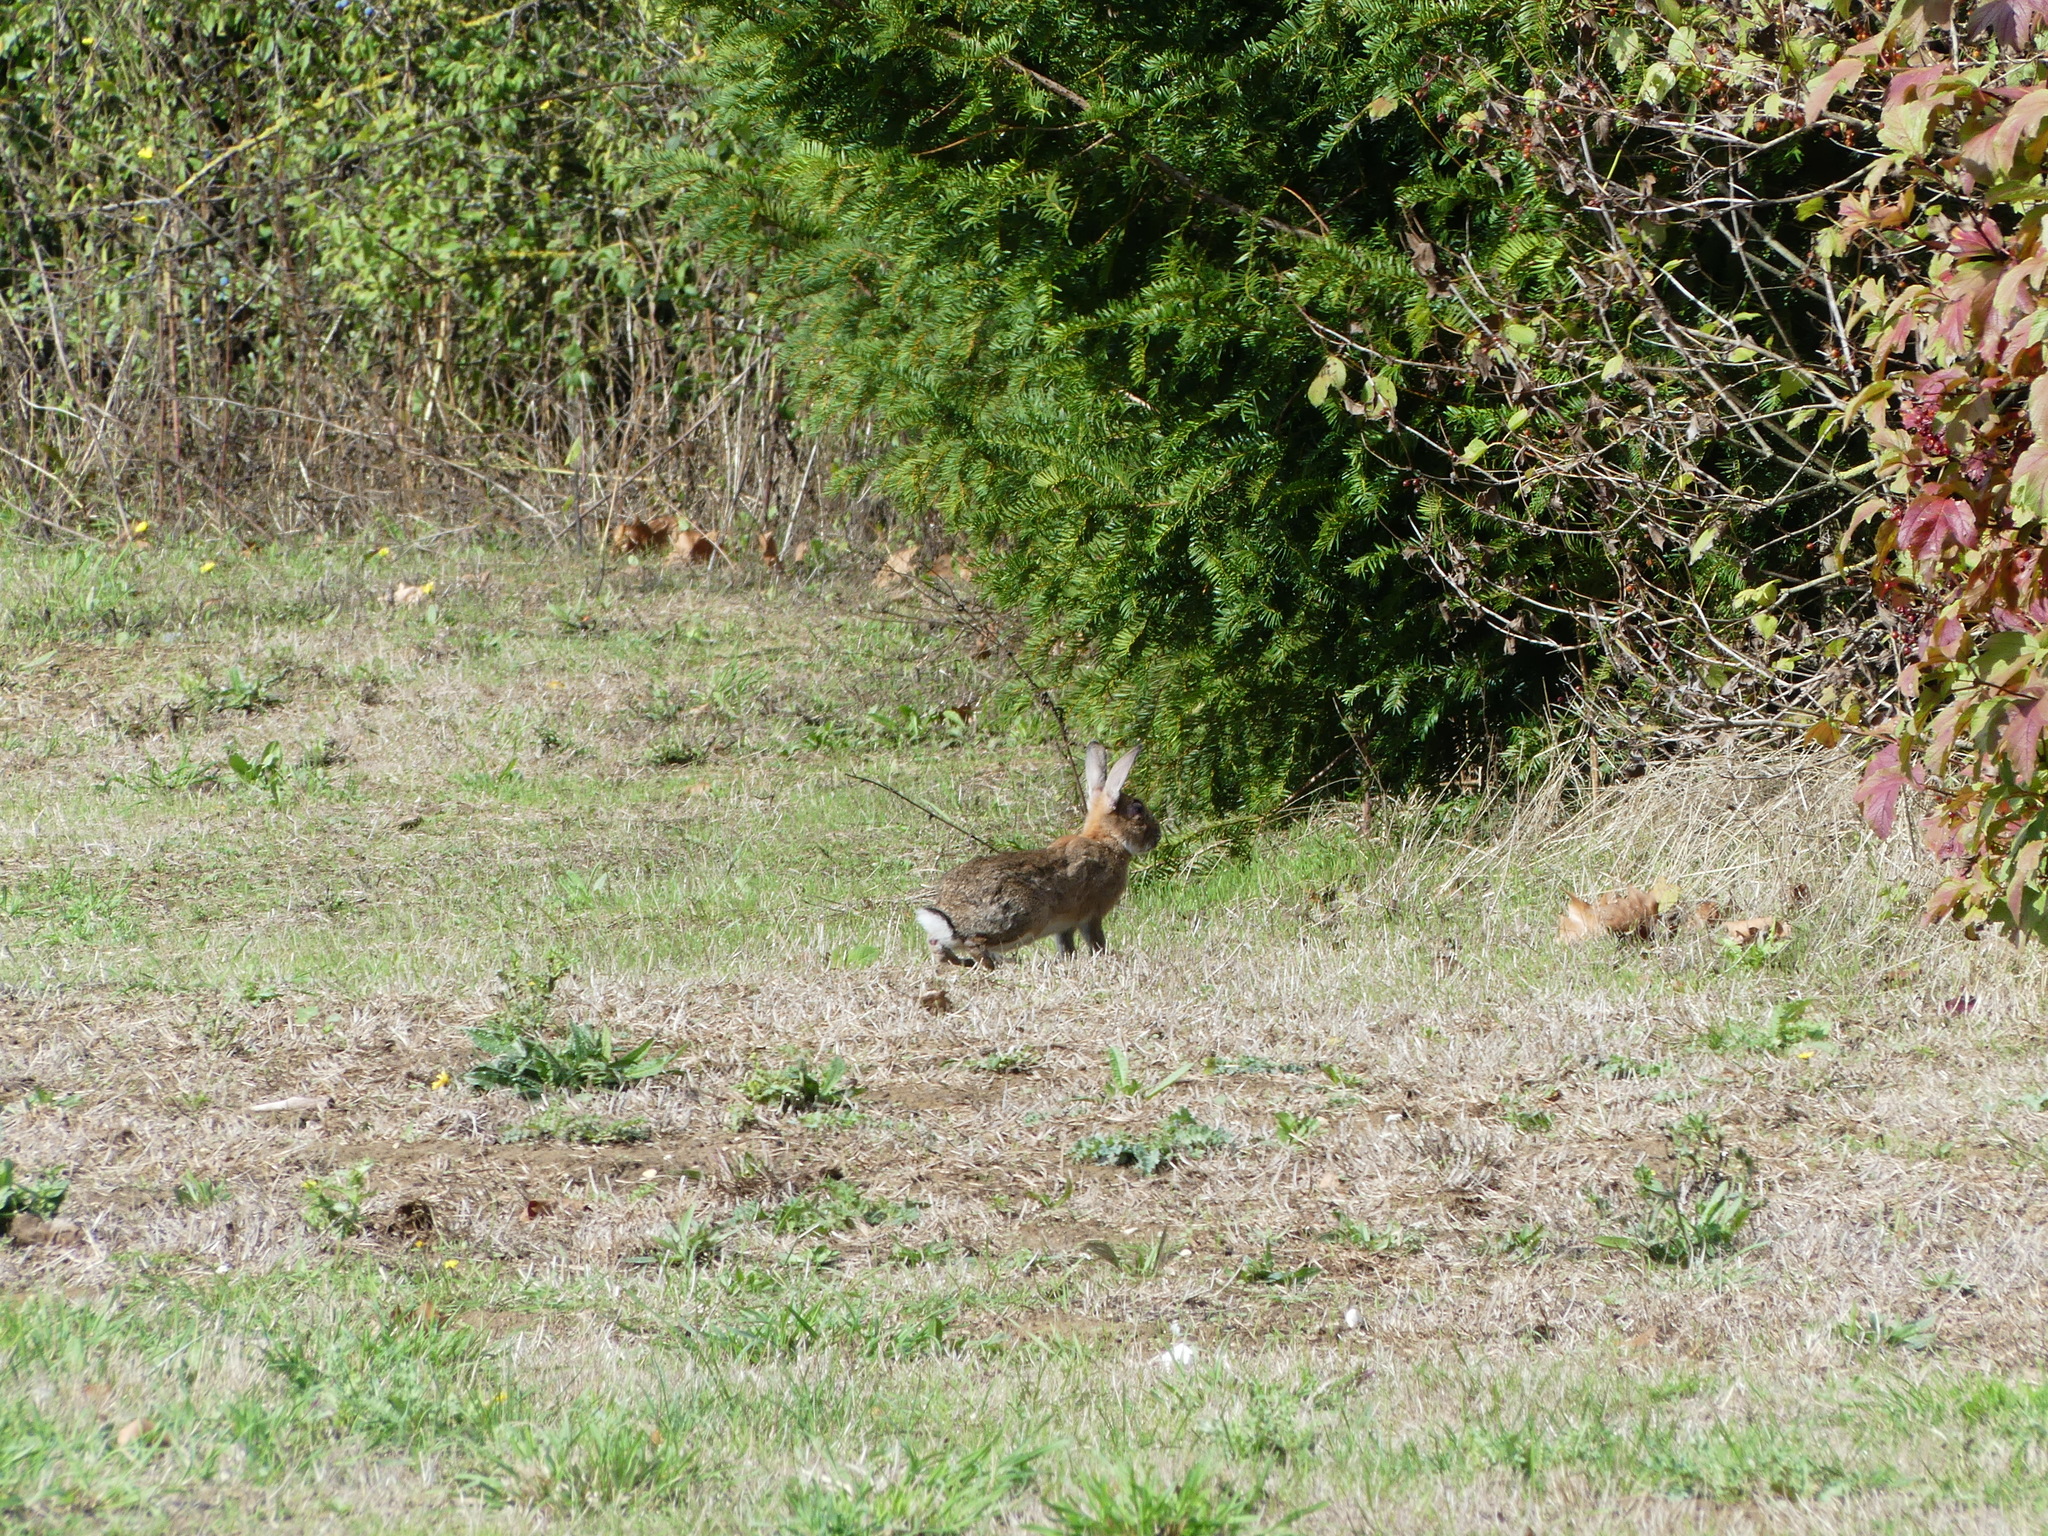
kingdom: Animalia
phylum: Chordata
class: Mammalia
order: Lagomorpha
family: Leporidae
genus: Oryctolagus
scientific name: Oryctolagus cuniculus
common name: European rabbit
